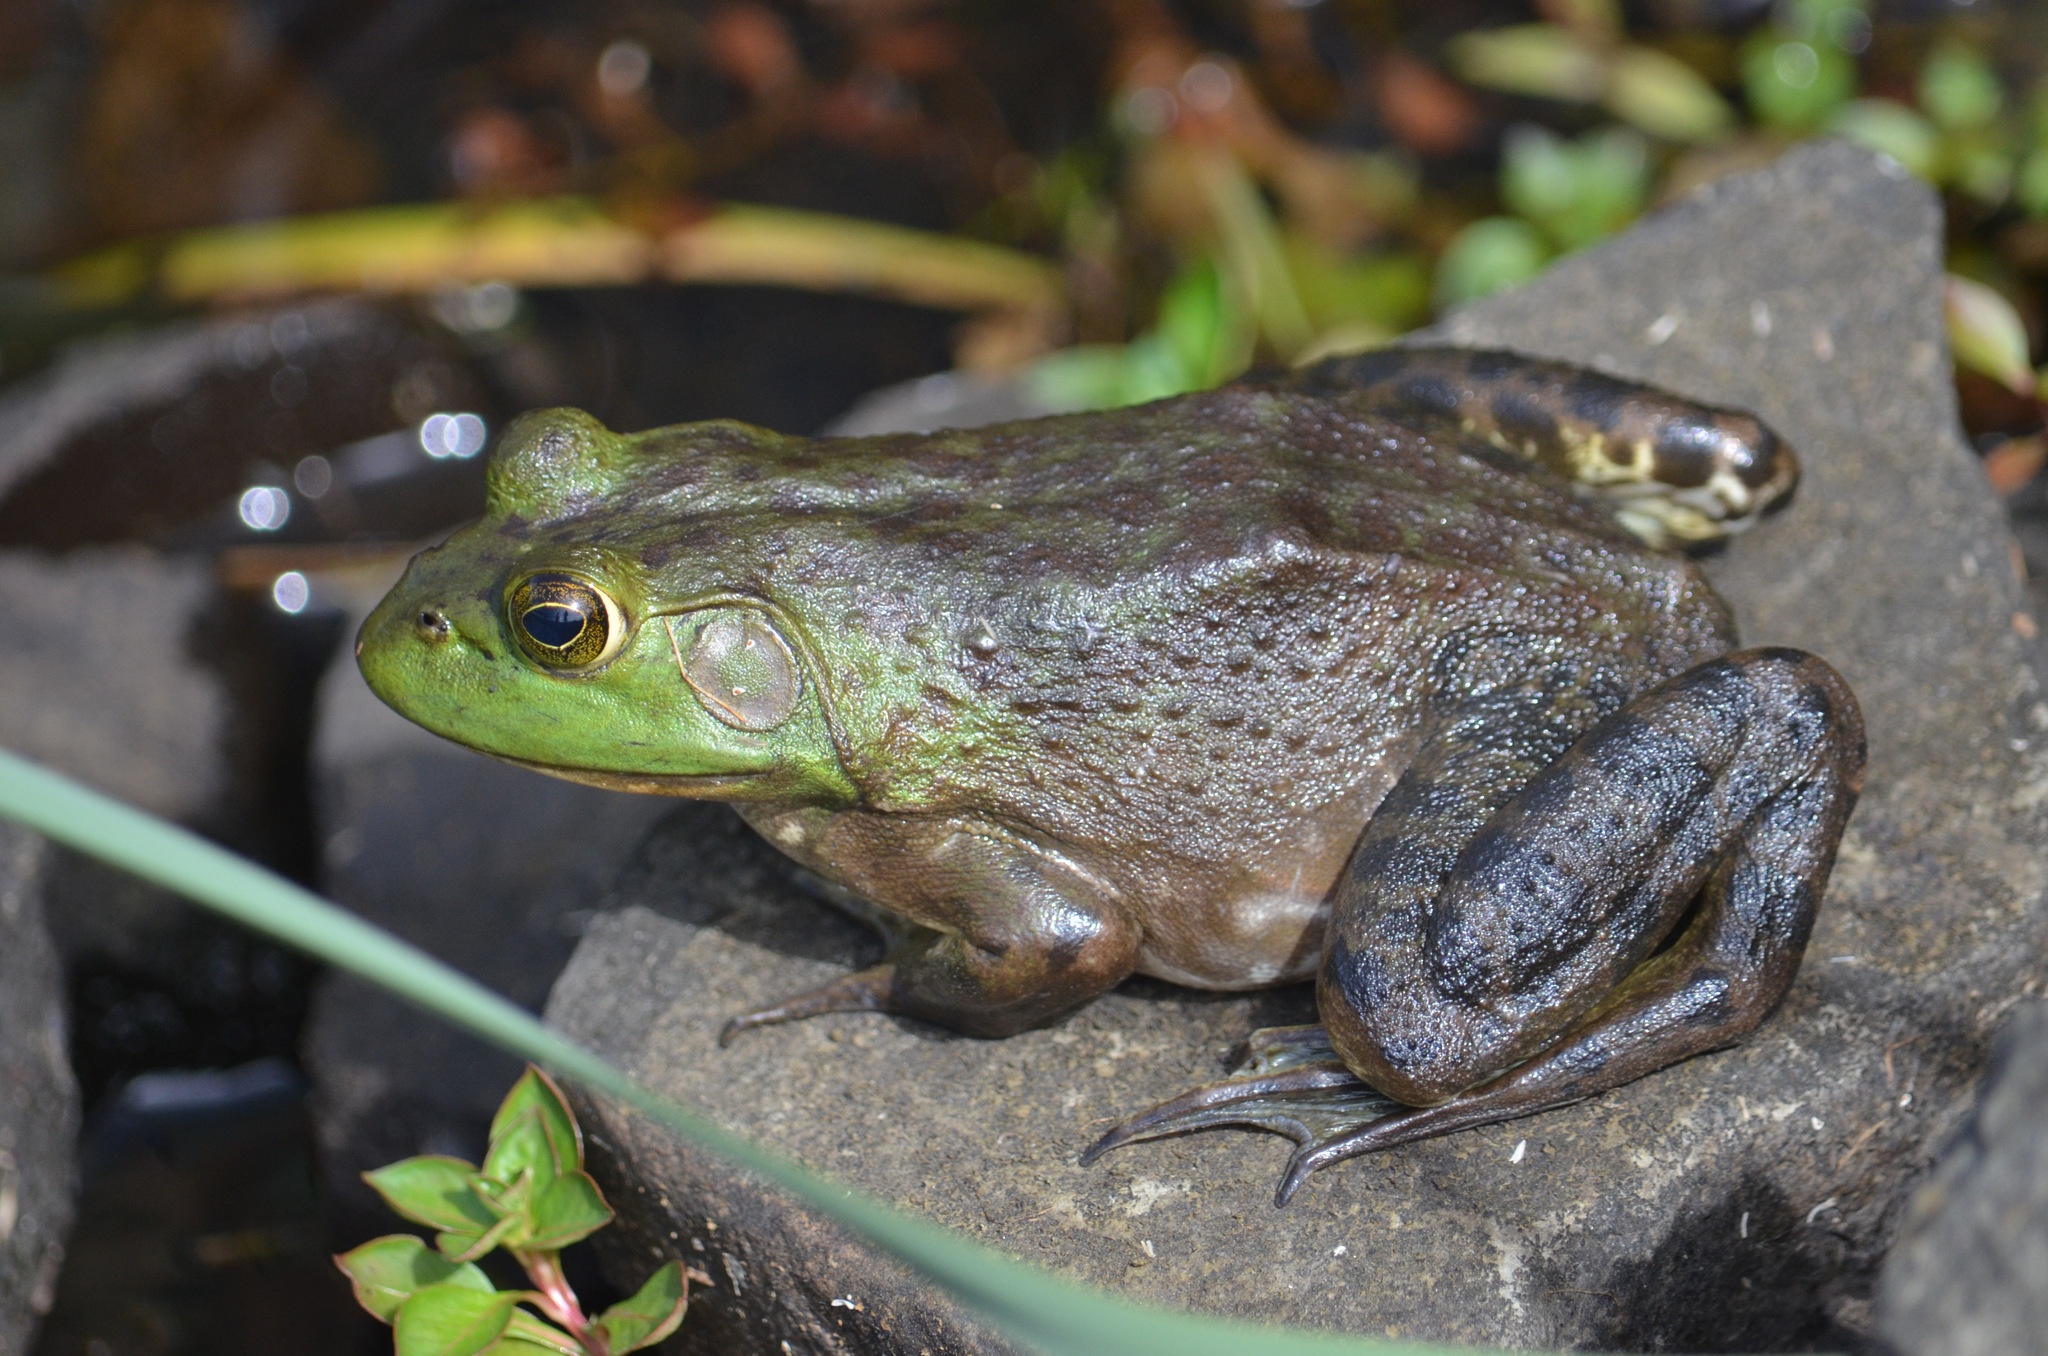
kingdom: Animalia
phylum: Chordata
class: Amphibia
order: Anura
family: Ranidae
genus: Lithobates
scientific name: Lithobates catesbeianus
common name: American bullfrog
